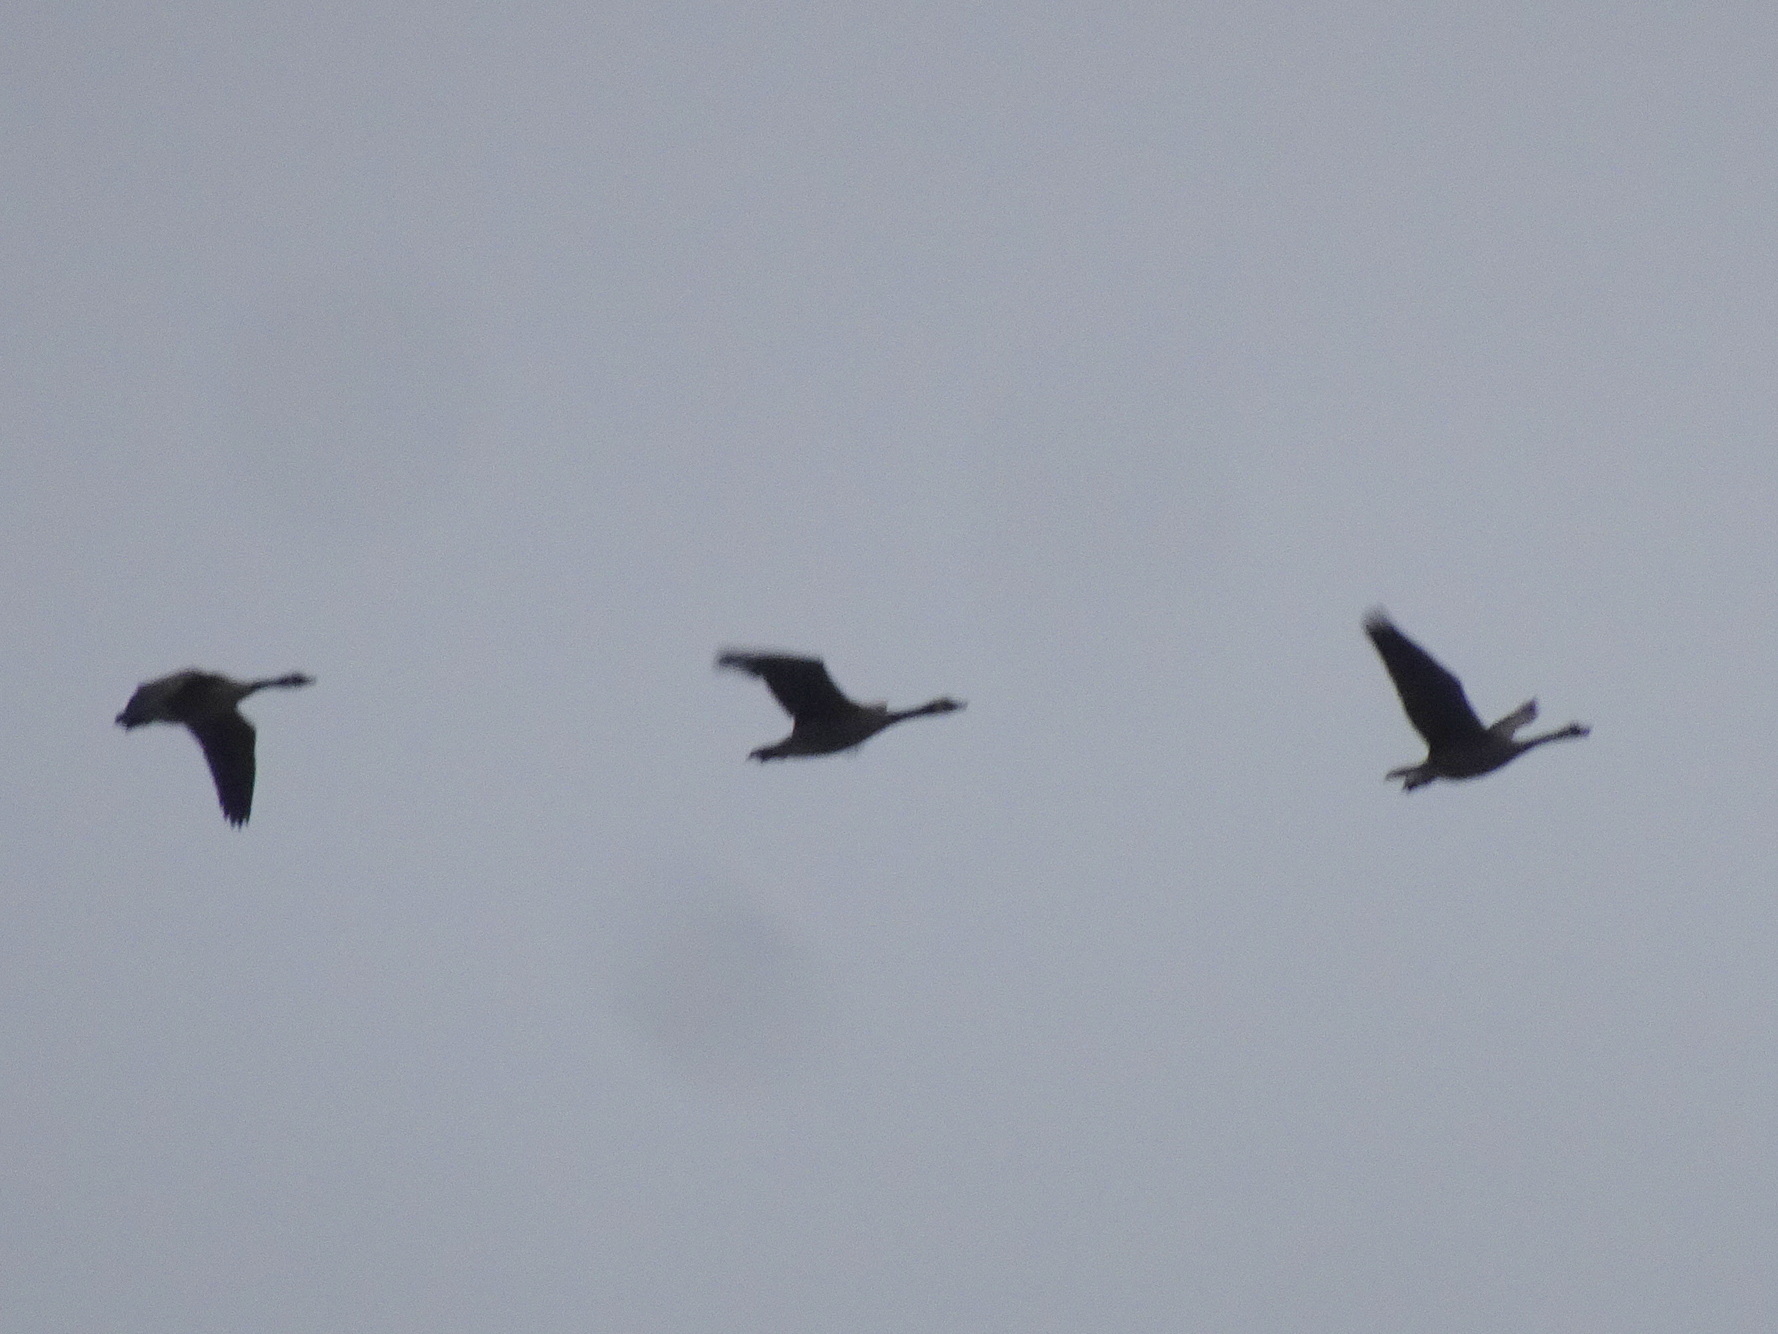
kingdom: Animalia
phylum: Chordata
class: Aves
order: Anseriformes
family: Anatidae
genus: Branta
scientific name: Branta canadensis
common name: Canada goose
